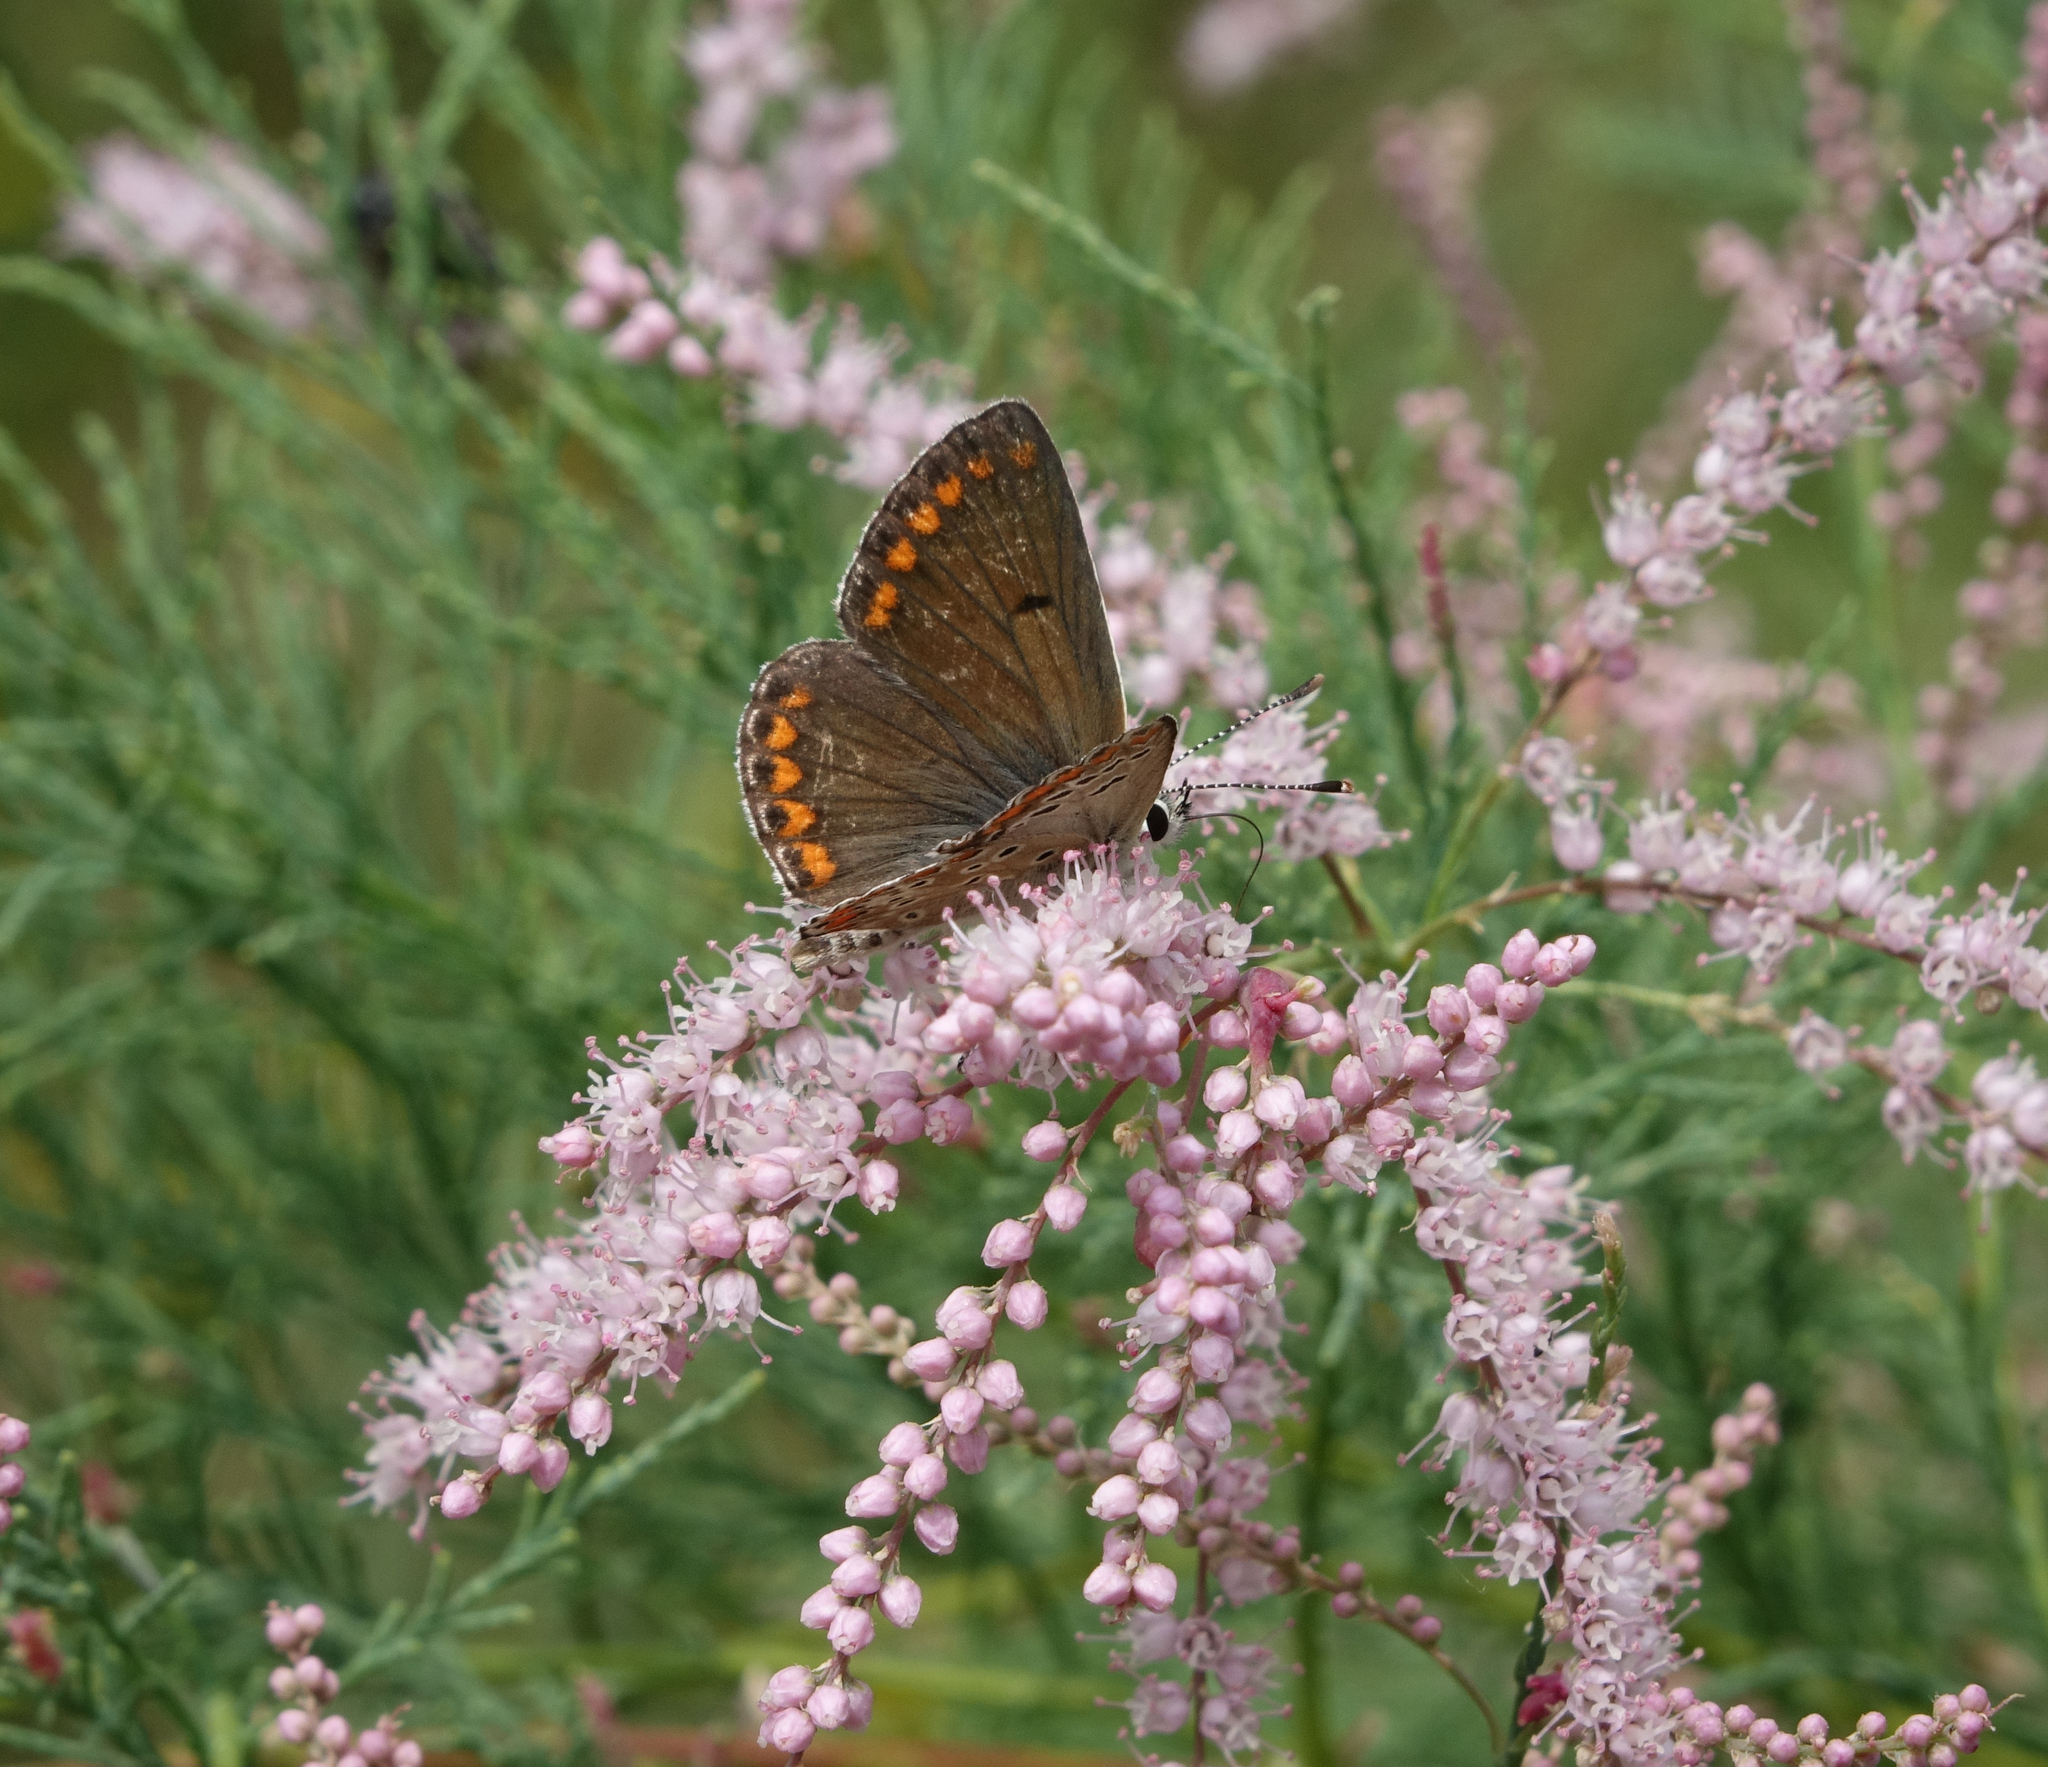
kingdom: Plantae
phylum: Tracheophyta
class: Magnoliopsida
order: Caryophyllales
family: Tamaricaceae
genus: Tamarix
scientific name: Tamarix ramosissima
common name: Pink tamarisk
